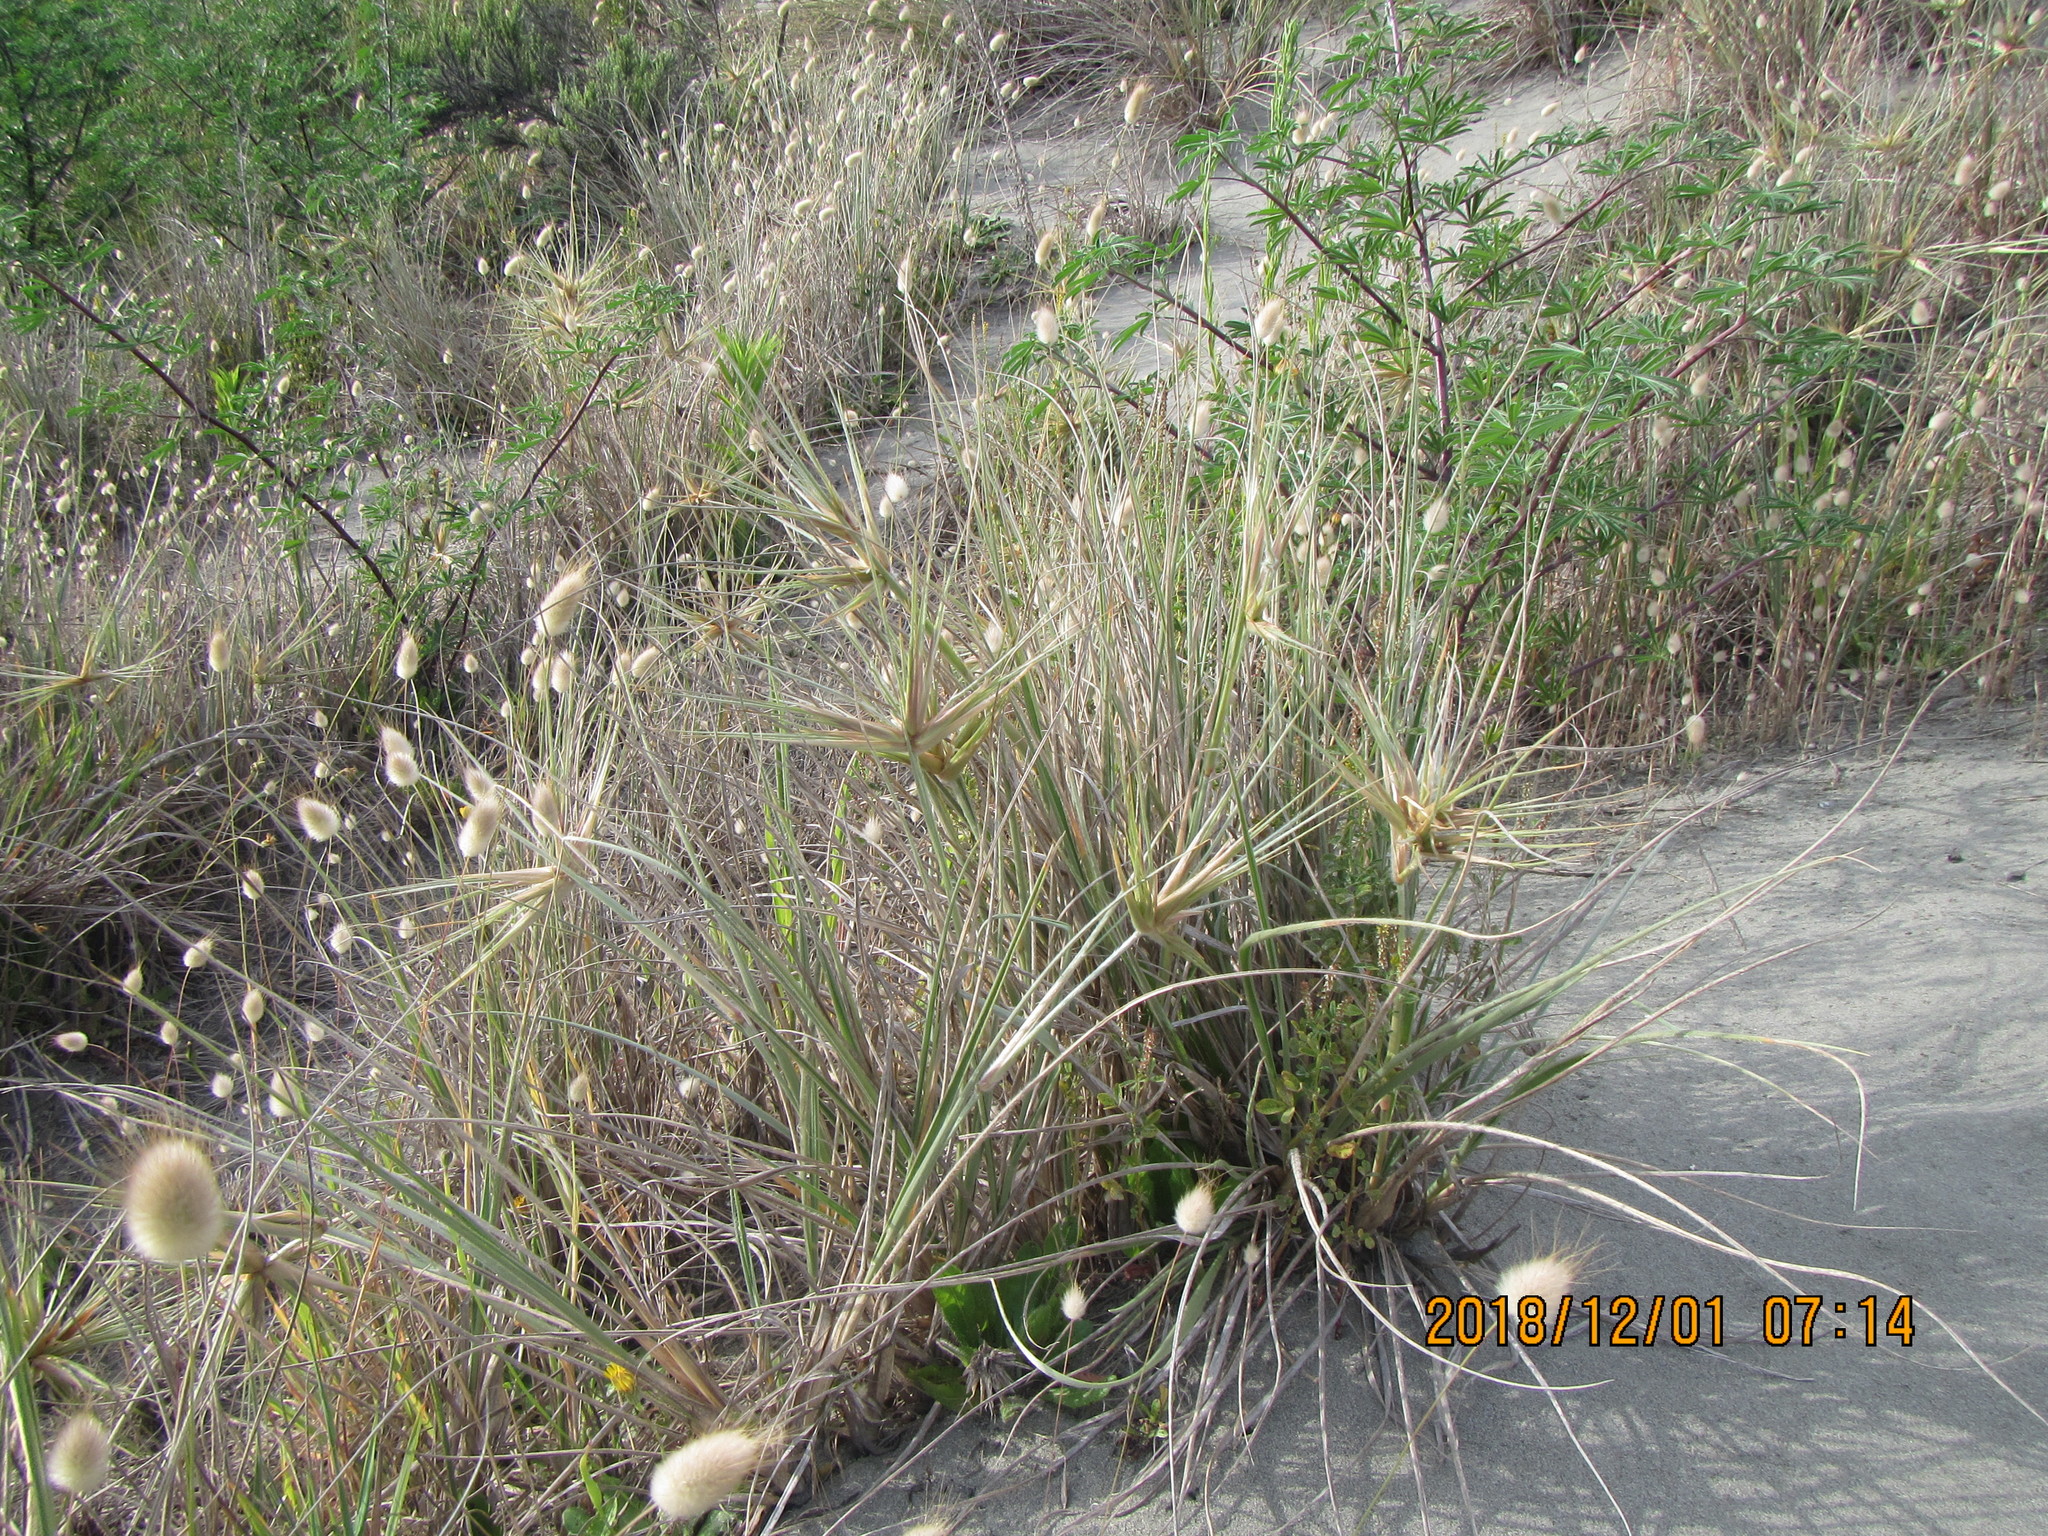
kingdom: Plantae
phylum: Tracheophyta
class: Liliopsida
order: Poales
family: Poaceae
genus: Spinifex
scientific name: Spinifex sericeus
